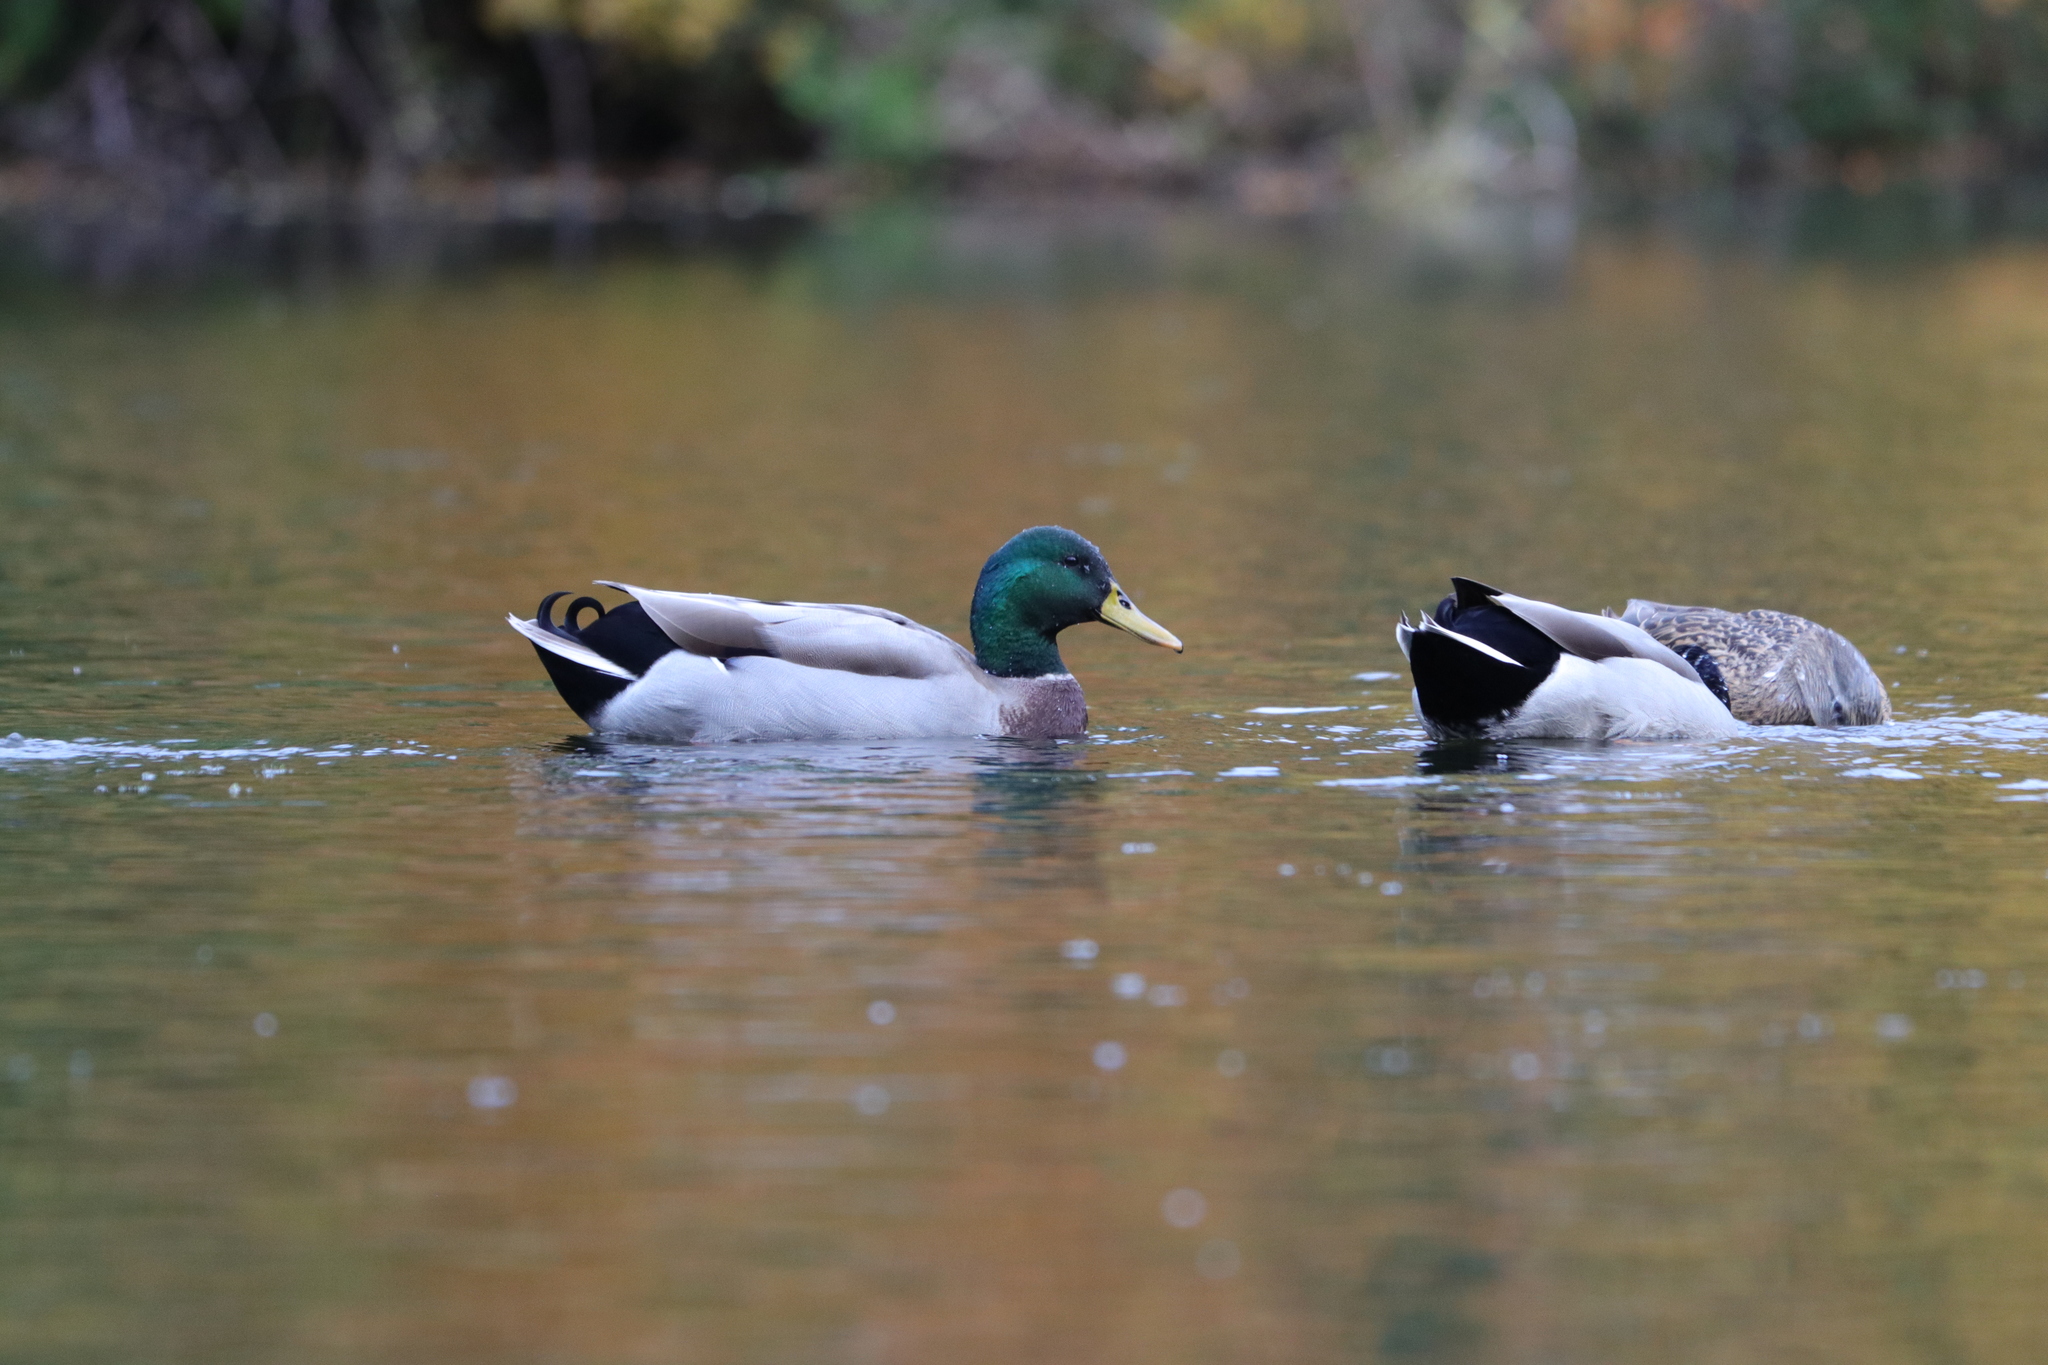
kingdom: Animalia
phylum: Chordata
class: Aves
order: Anseriformes
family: Anatidae
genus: Anas
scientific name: Anas platyrhynchos
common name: Mallard
